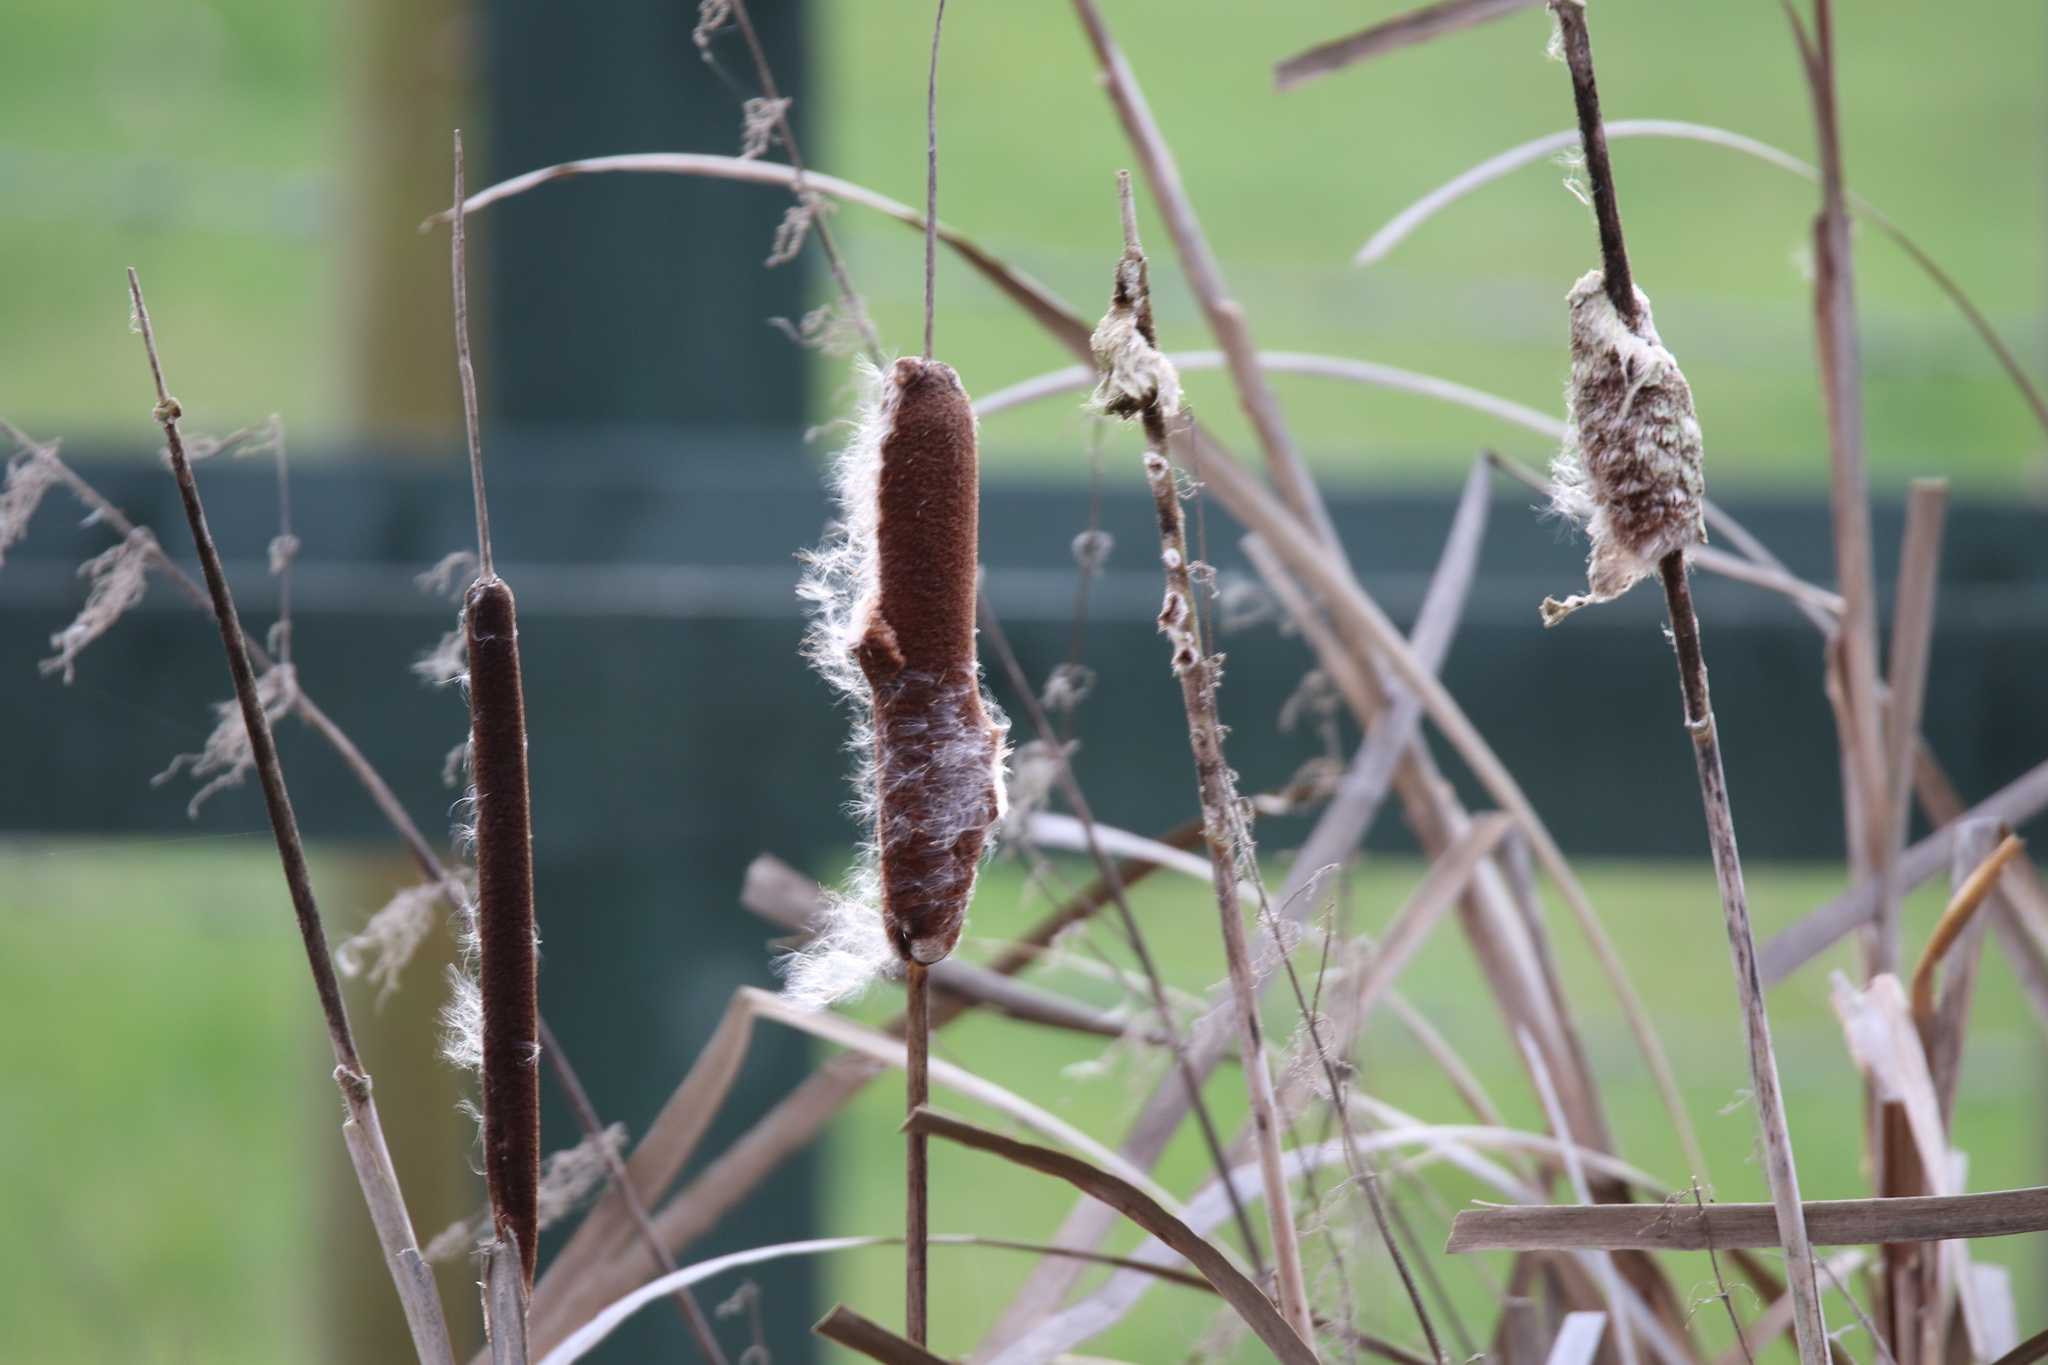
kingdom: Plantae
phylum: Tracheophyta
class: Liliopsida
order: Poales
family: Typhaceae
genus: Typha
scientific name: Typha latifolia
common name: Broadleaf cattail
